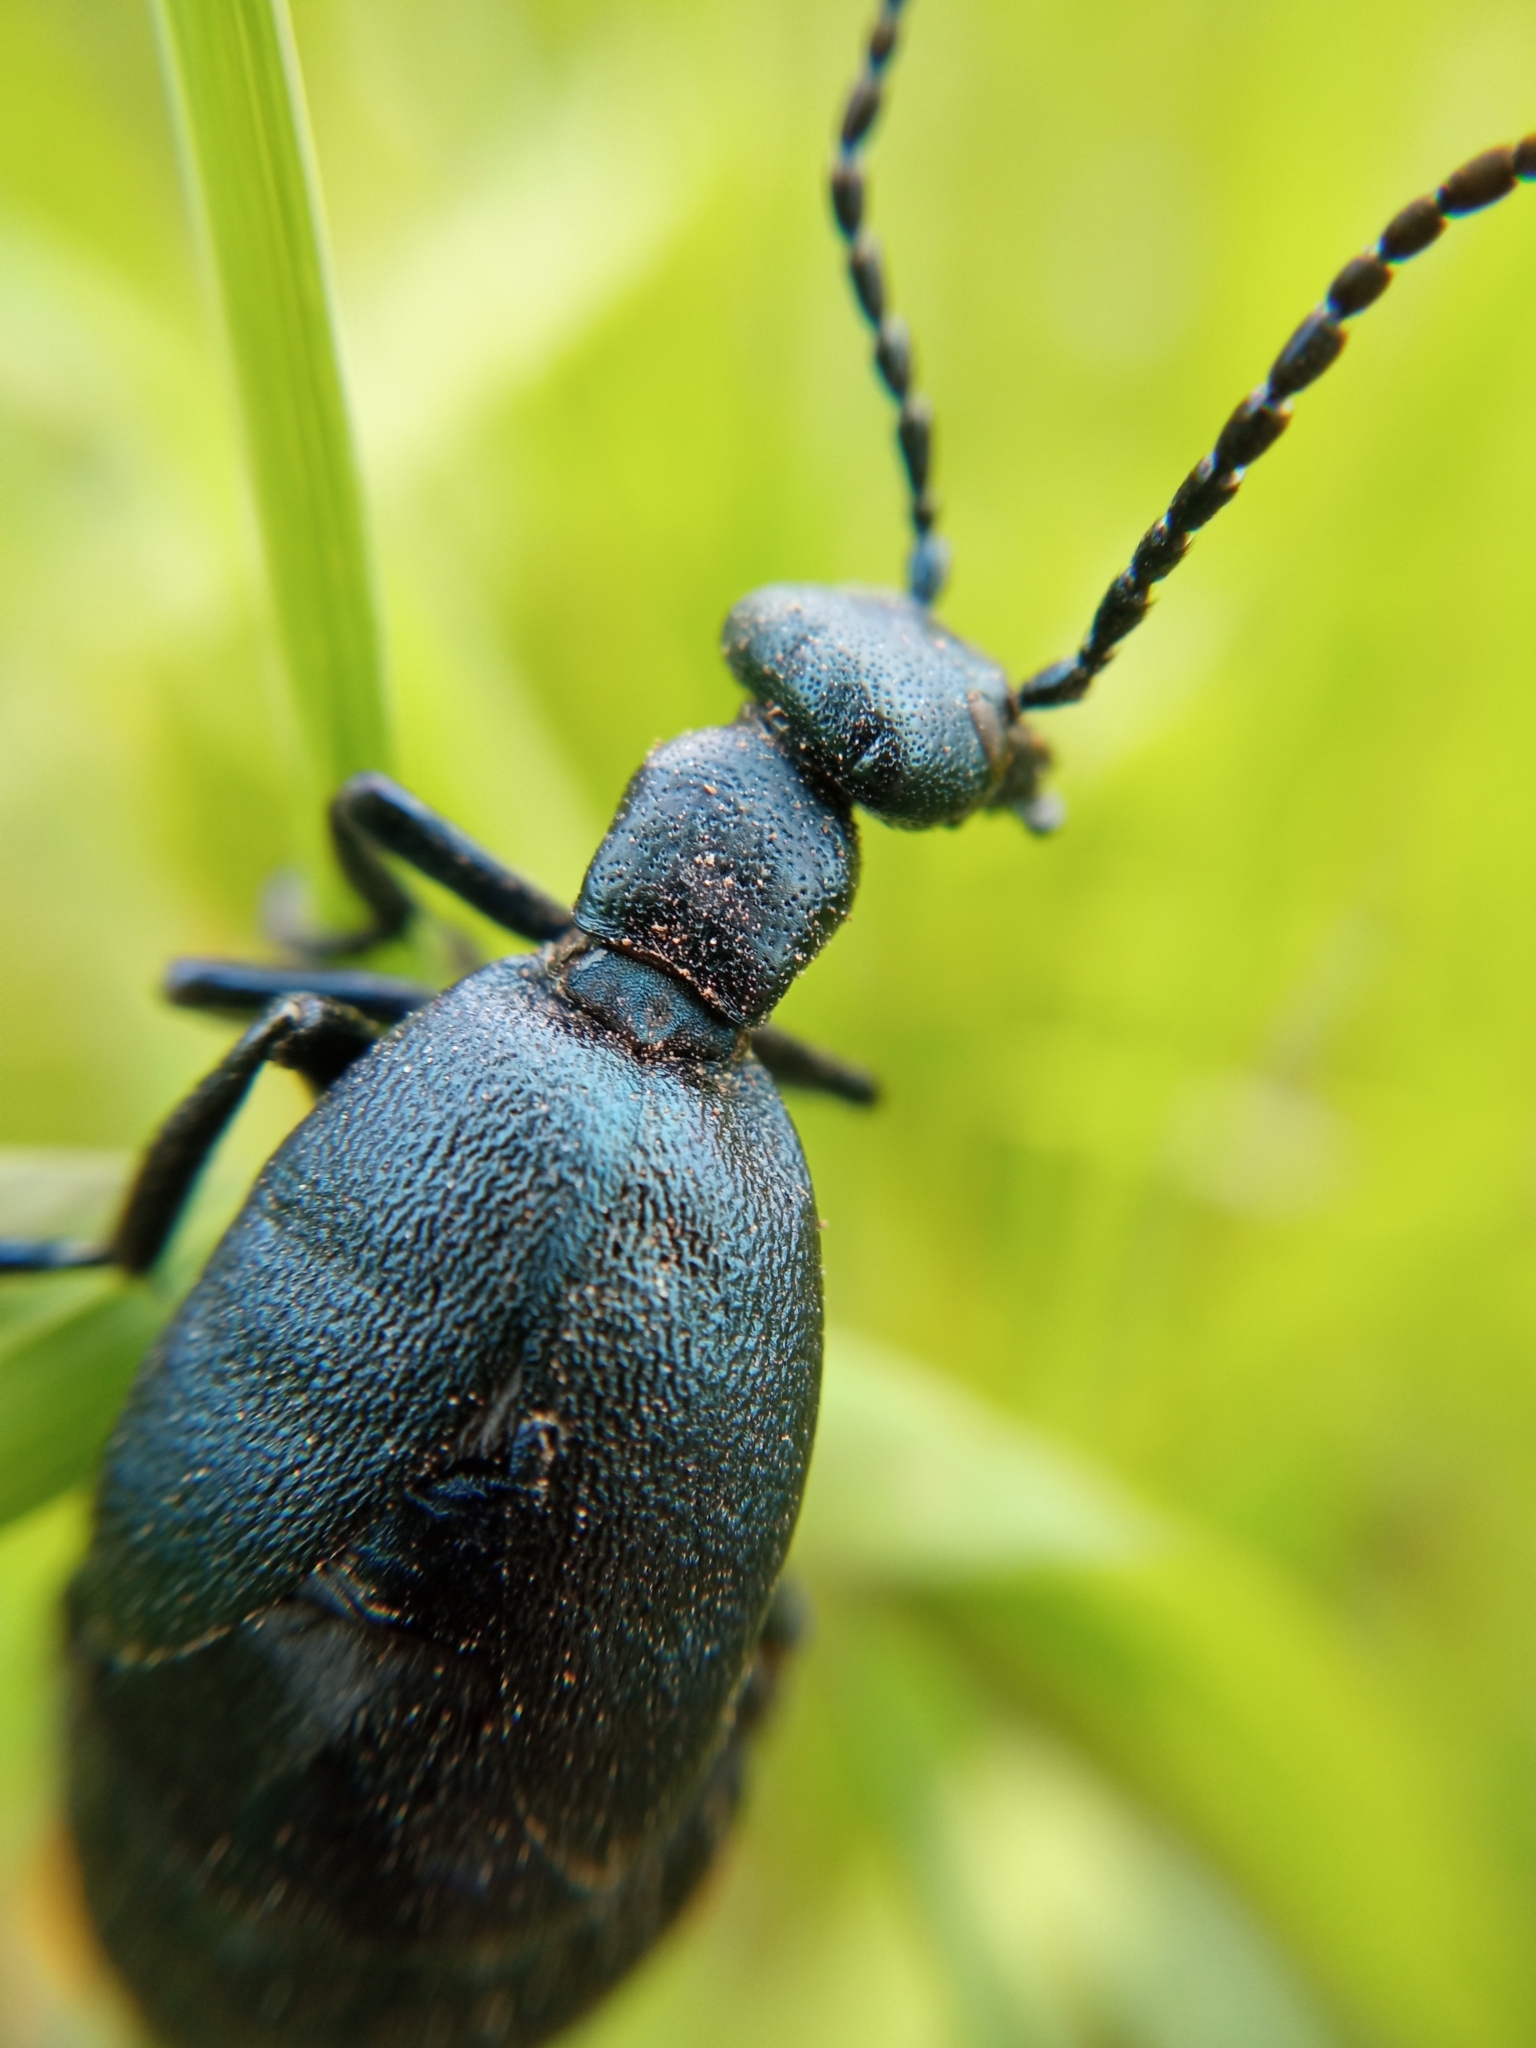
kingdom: Animalia
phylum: Arthropoda
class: Insecta
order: Coleoptera
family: Meloidae
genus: Meloe
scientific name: Meloe violaceus
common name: Violet oil-beetle
